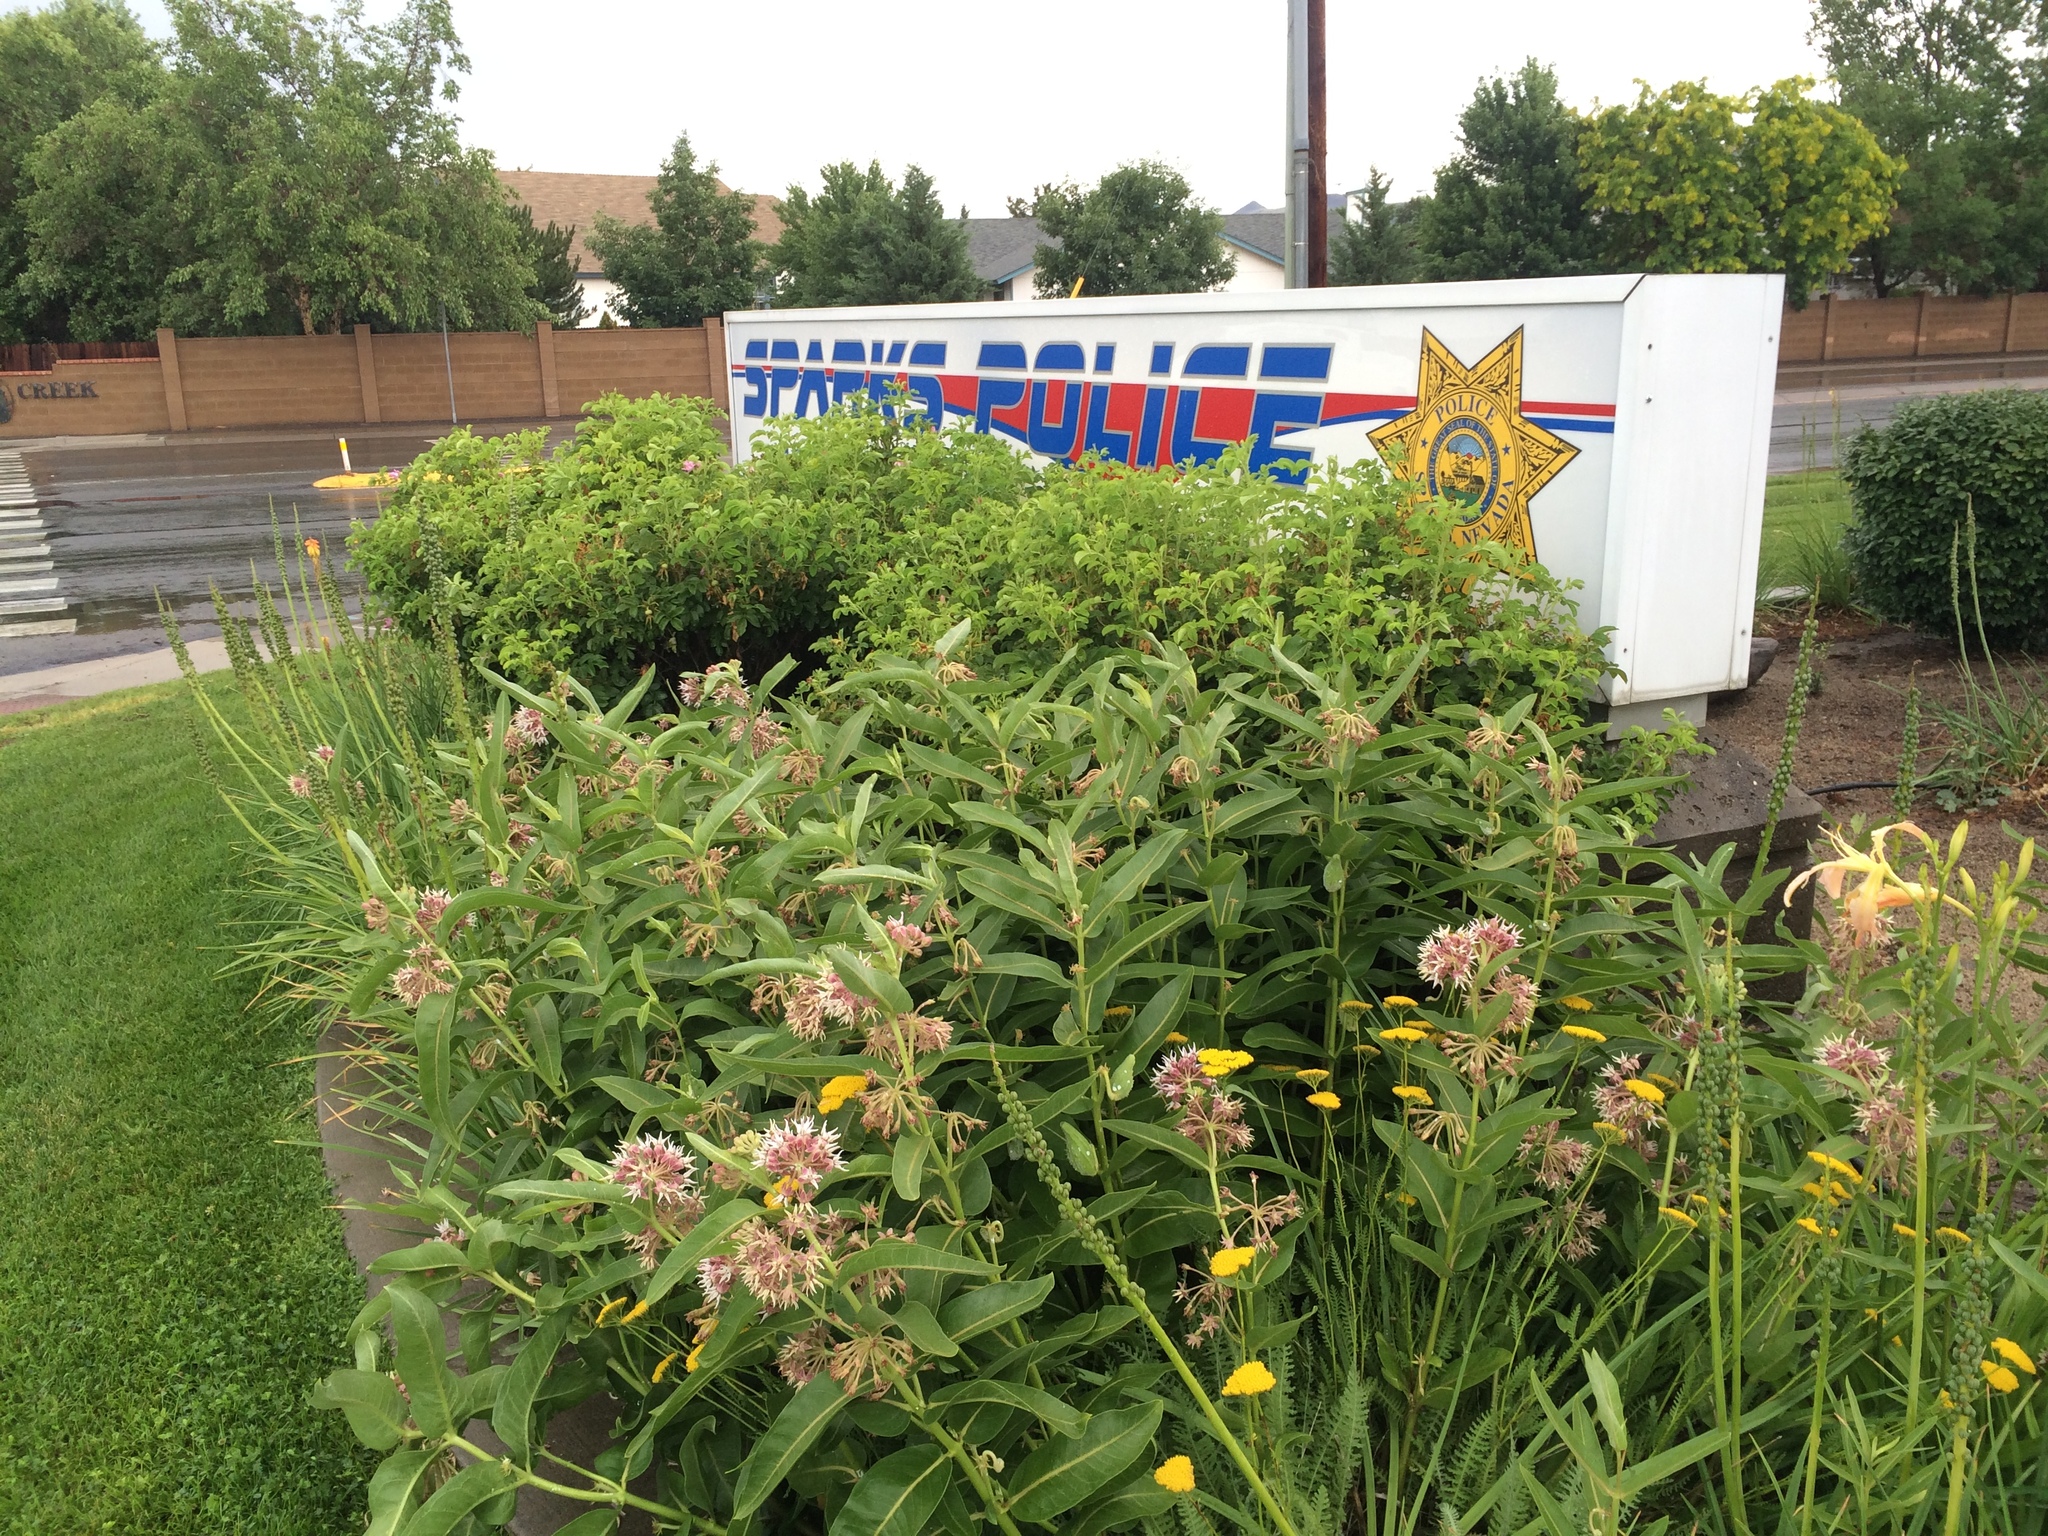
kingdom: Plantae
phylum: Tracheophyta
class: Magnoliopsida
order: Gentianales
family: Apocynaceae
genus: Asclepias
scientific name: Asclepias speciosa
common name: Showy milkweed
